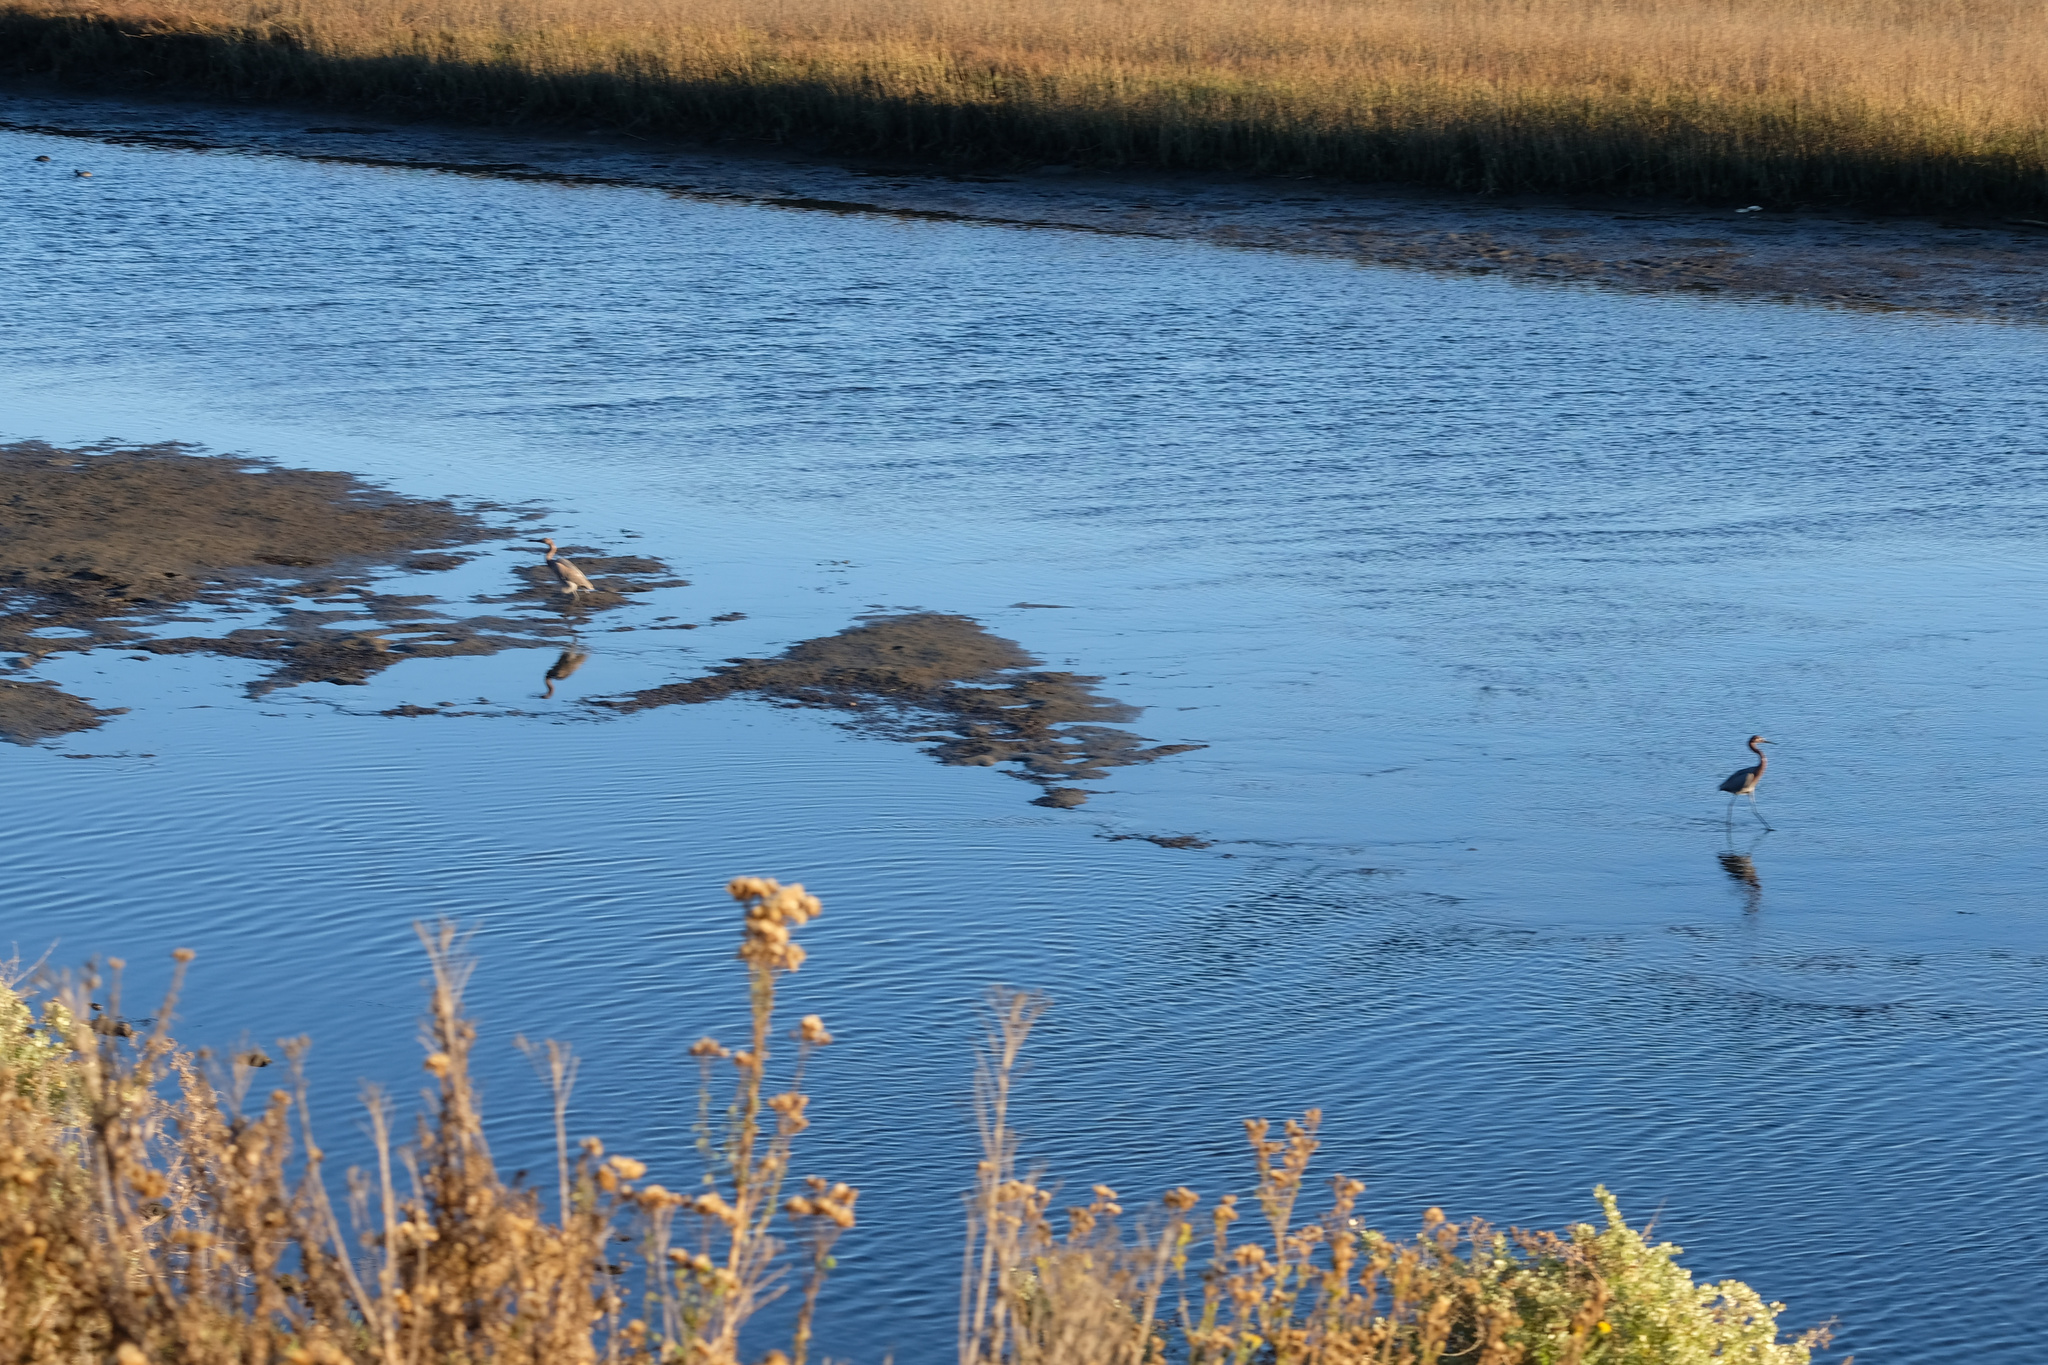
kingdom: Animalia
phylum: Chordata
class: Aves
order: Pelecaniformes
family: Ardeidae
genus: Egretta
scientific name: Egretta rufescens
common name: Reddish egret
